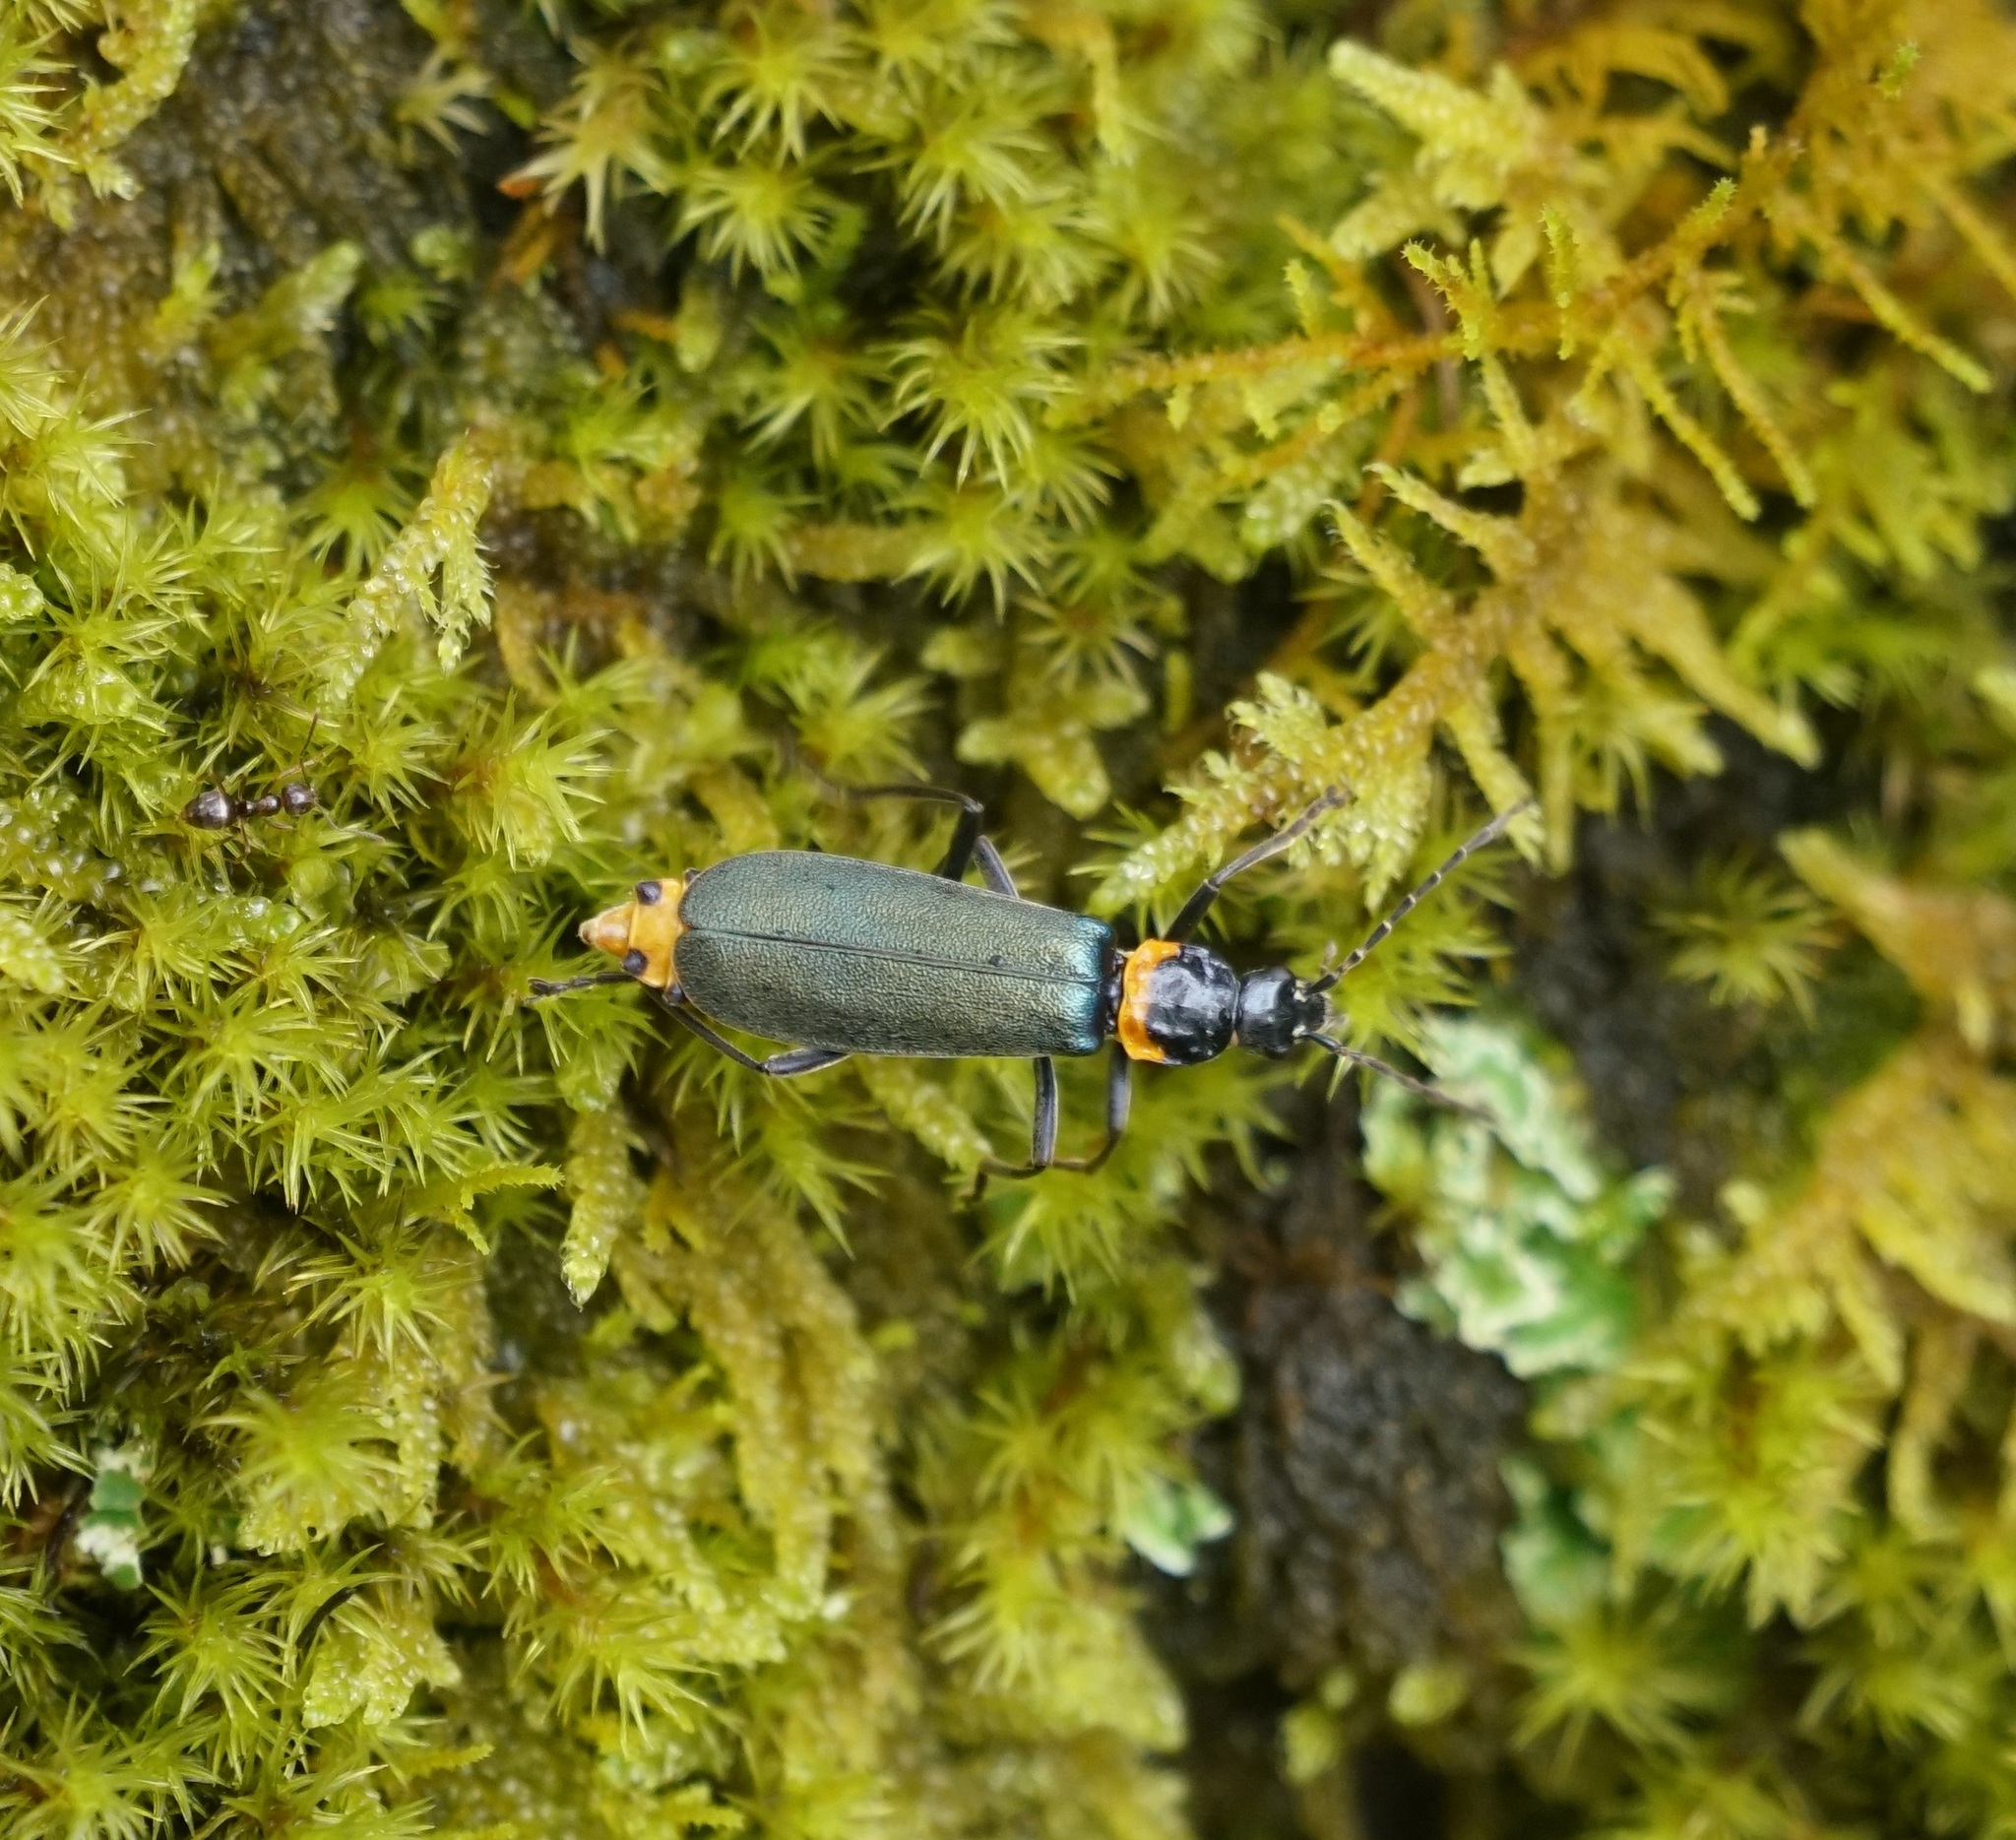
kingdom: Animalia
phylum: Arthropoda
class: Insecta
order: Coleoptera
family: Cantharidae
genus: Chauliognathus
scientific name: Chauliognathus
